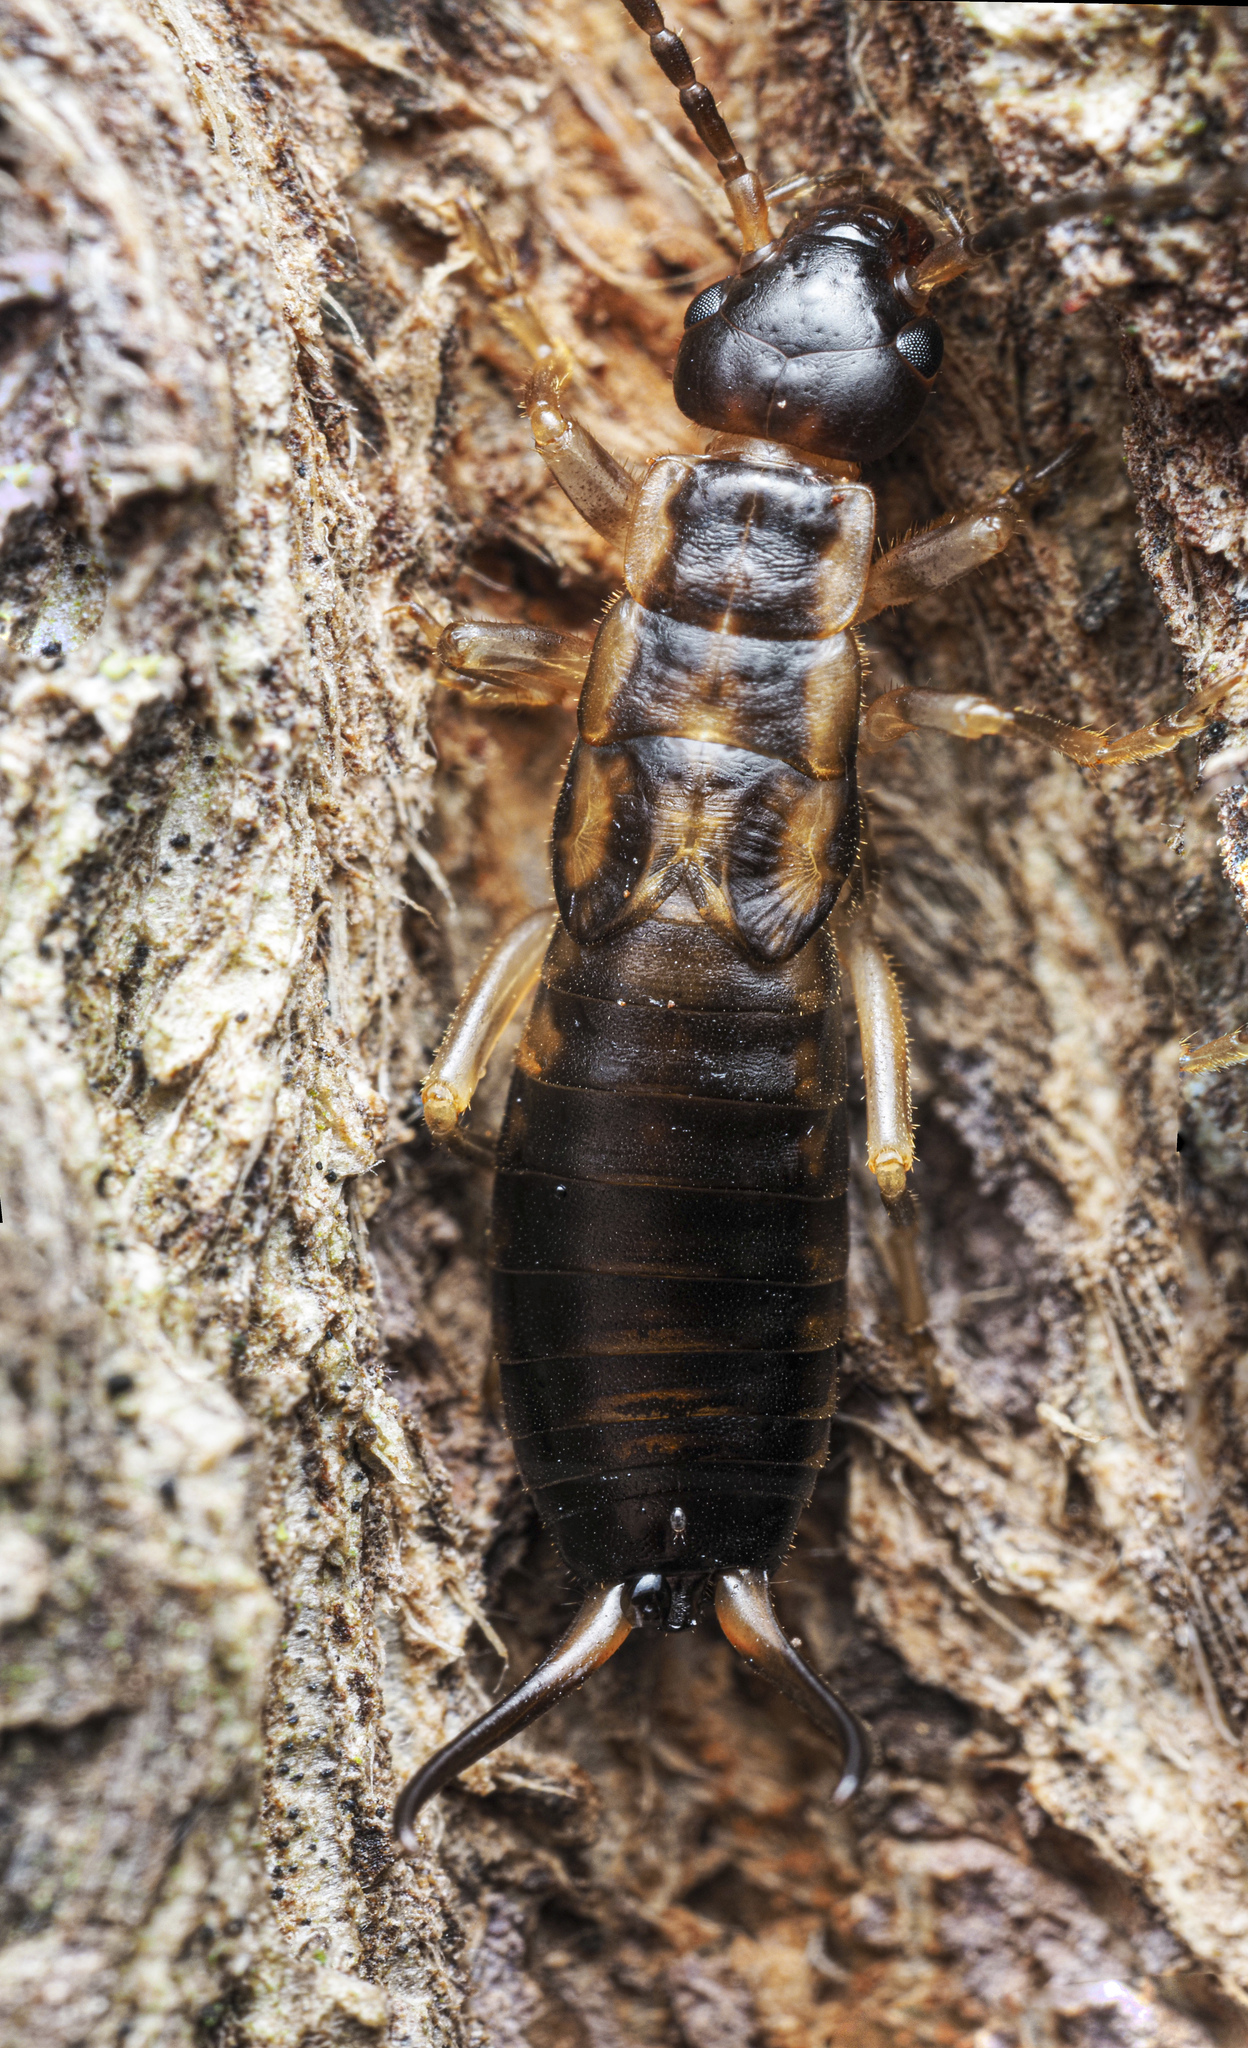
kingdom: Animalia
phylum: Arthropoda
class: Insecta
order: Dermaptera
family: Forficulidae
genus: Forficula
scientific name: Forficula
